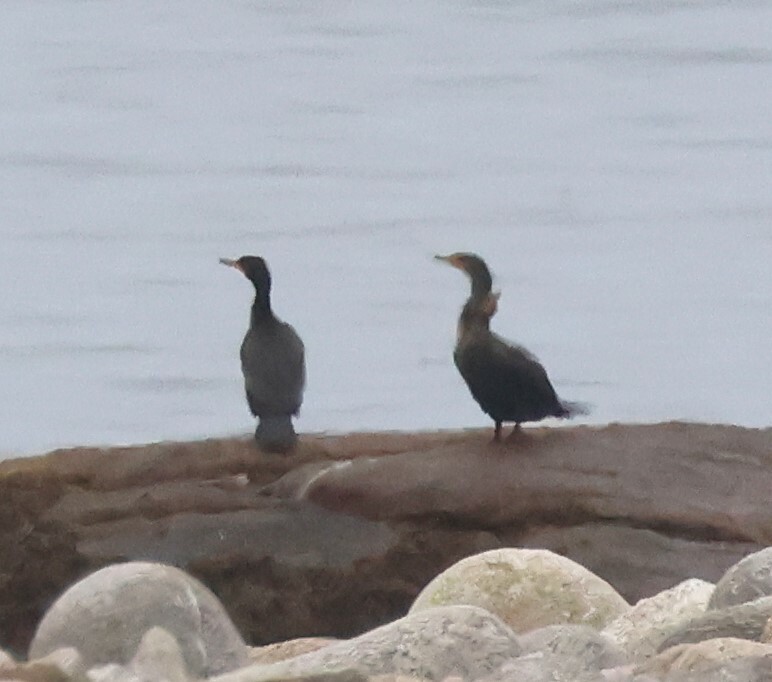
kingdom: Animalia
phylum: Chordata
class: Aves
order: Suliformes
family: Phalacrocoracidae
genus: Phalacrocorax
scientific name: Phalacrocorax auritus
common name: Double-crested cormorant
